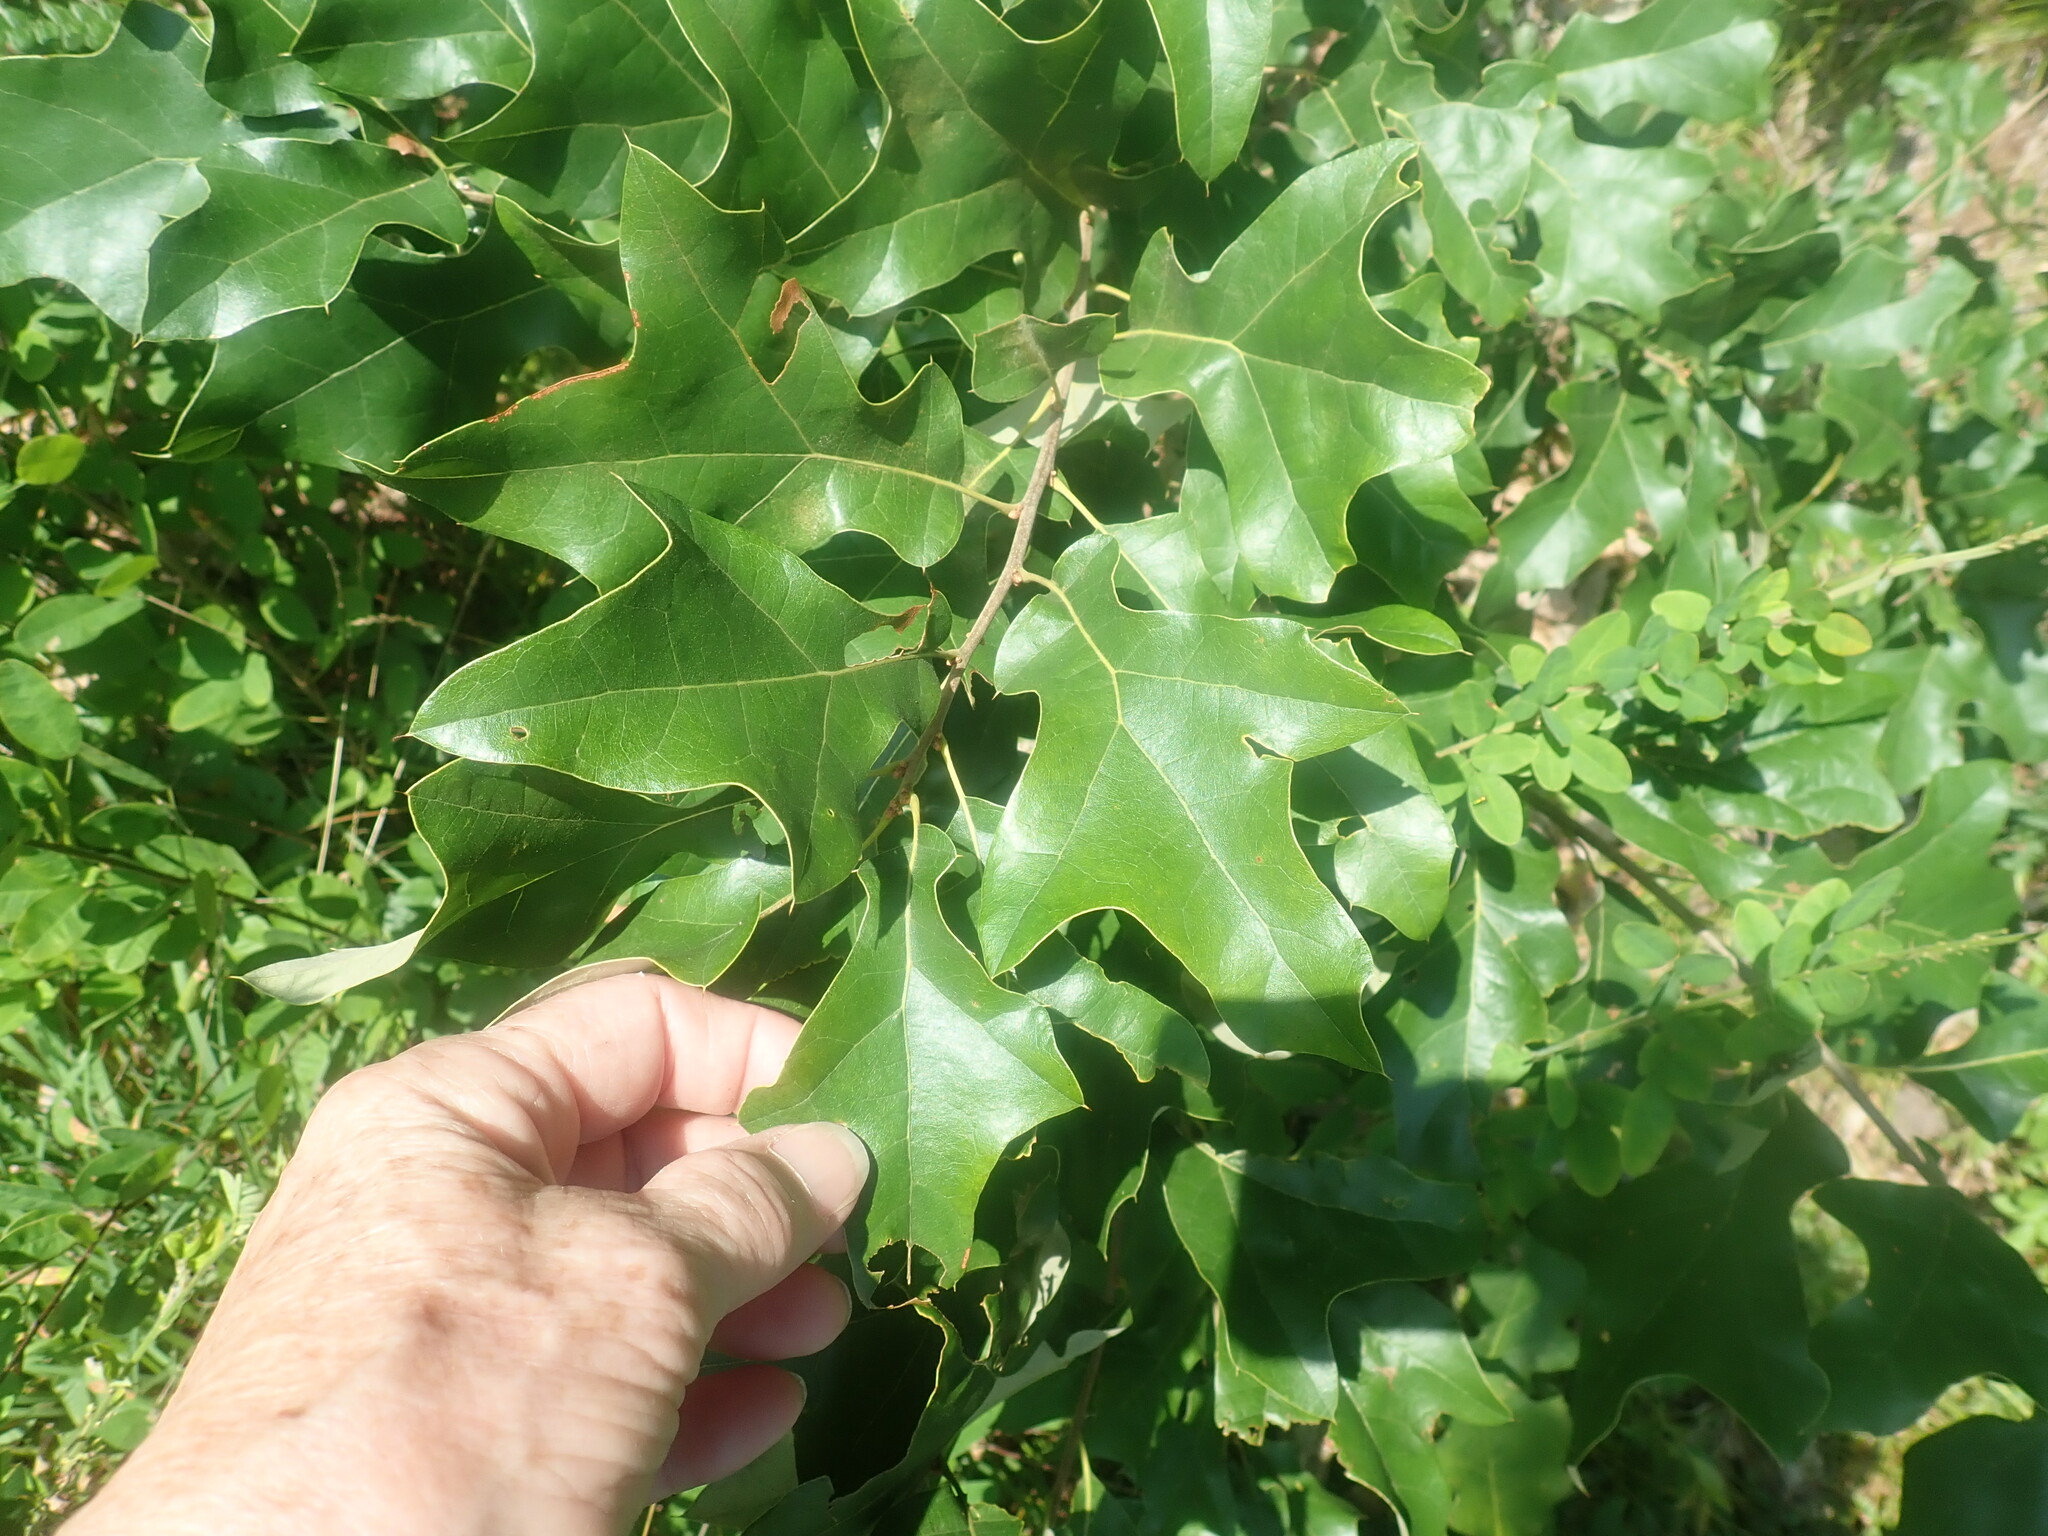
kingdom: Plantae
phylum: Tracheophyta
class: Magnoliopsida
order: Fagales
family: Fagaceae
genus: Quercus
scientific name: Quercus ilicifolia
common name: Bear oak
